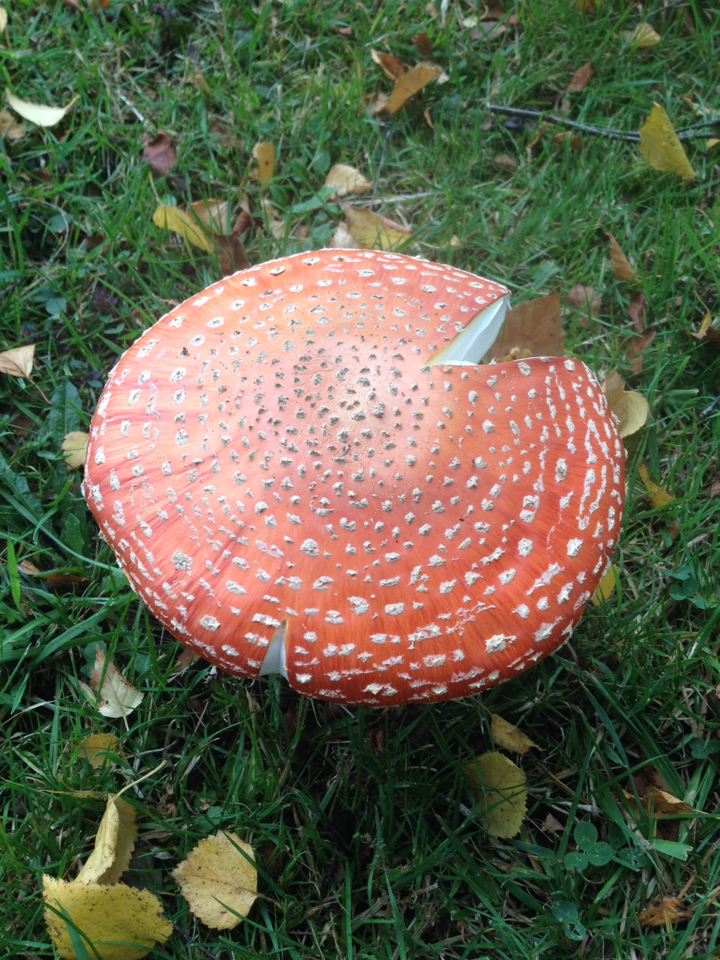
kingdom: Fungi
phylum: Basidiomycota
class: Agaricomycetes
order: Agaricales
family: Amanitaceae
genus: Amanita
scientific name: Amanita muscaria
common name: Fly agaric
